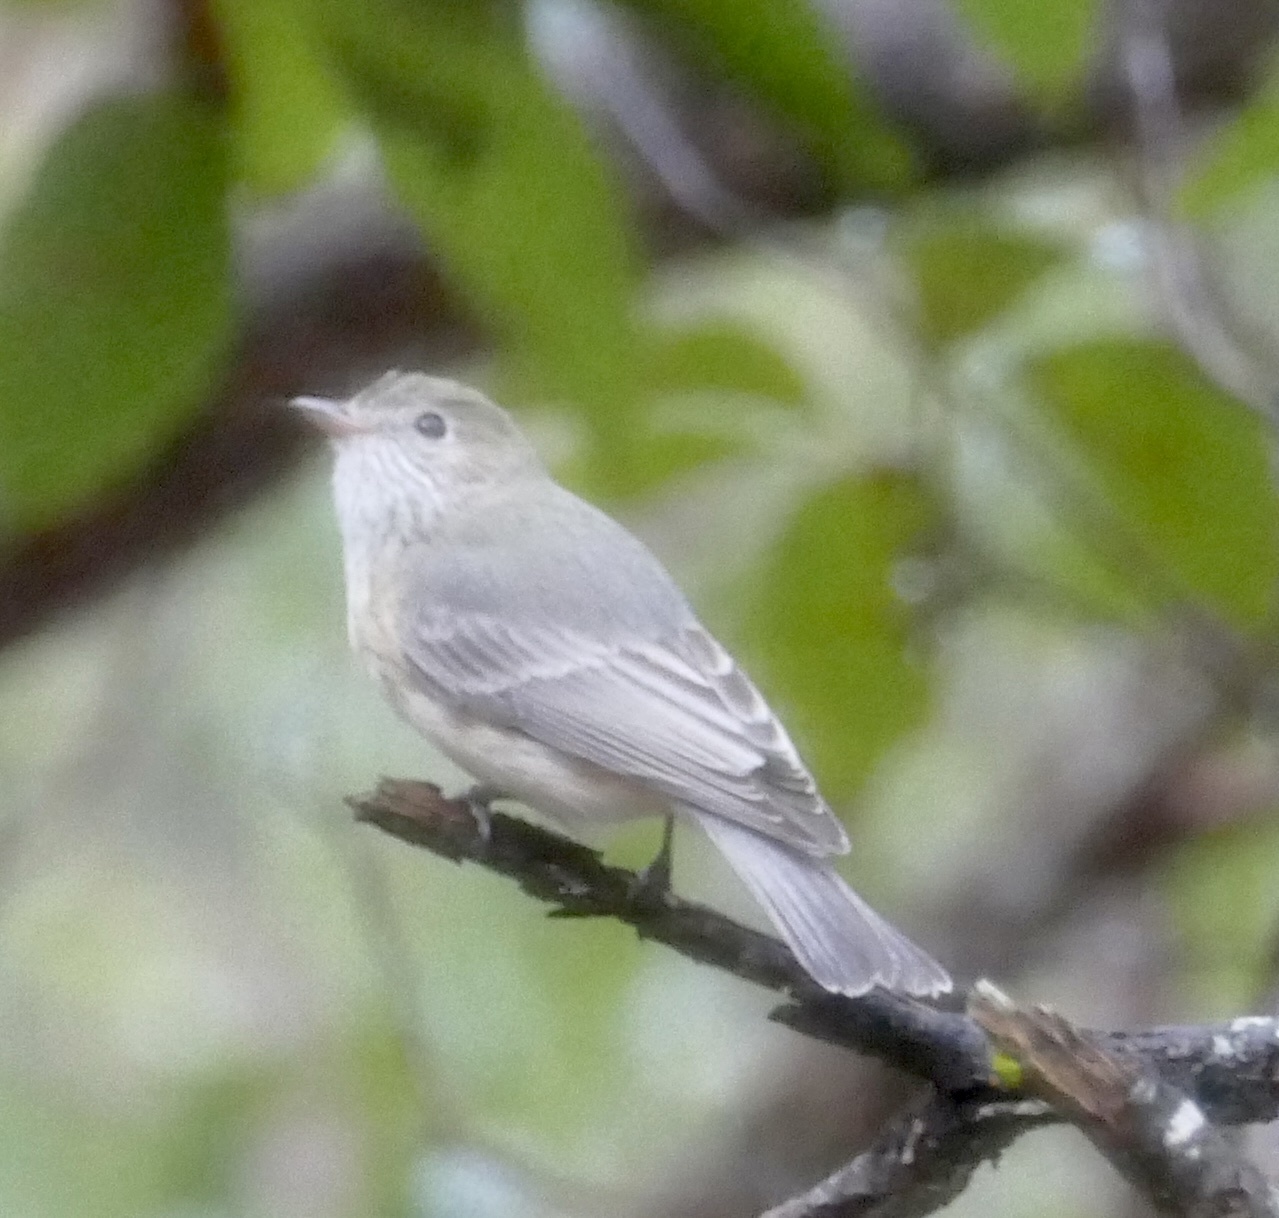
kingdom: Animalia
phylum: Chordata
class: Aves
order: Passeriformes
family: Pachycephalidae
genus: Pachycephala
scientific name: Pachycephala rufiventris
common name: Rufous whistler
